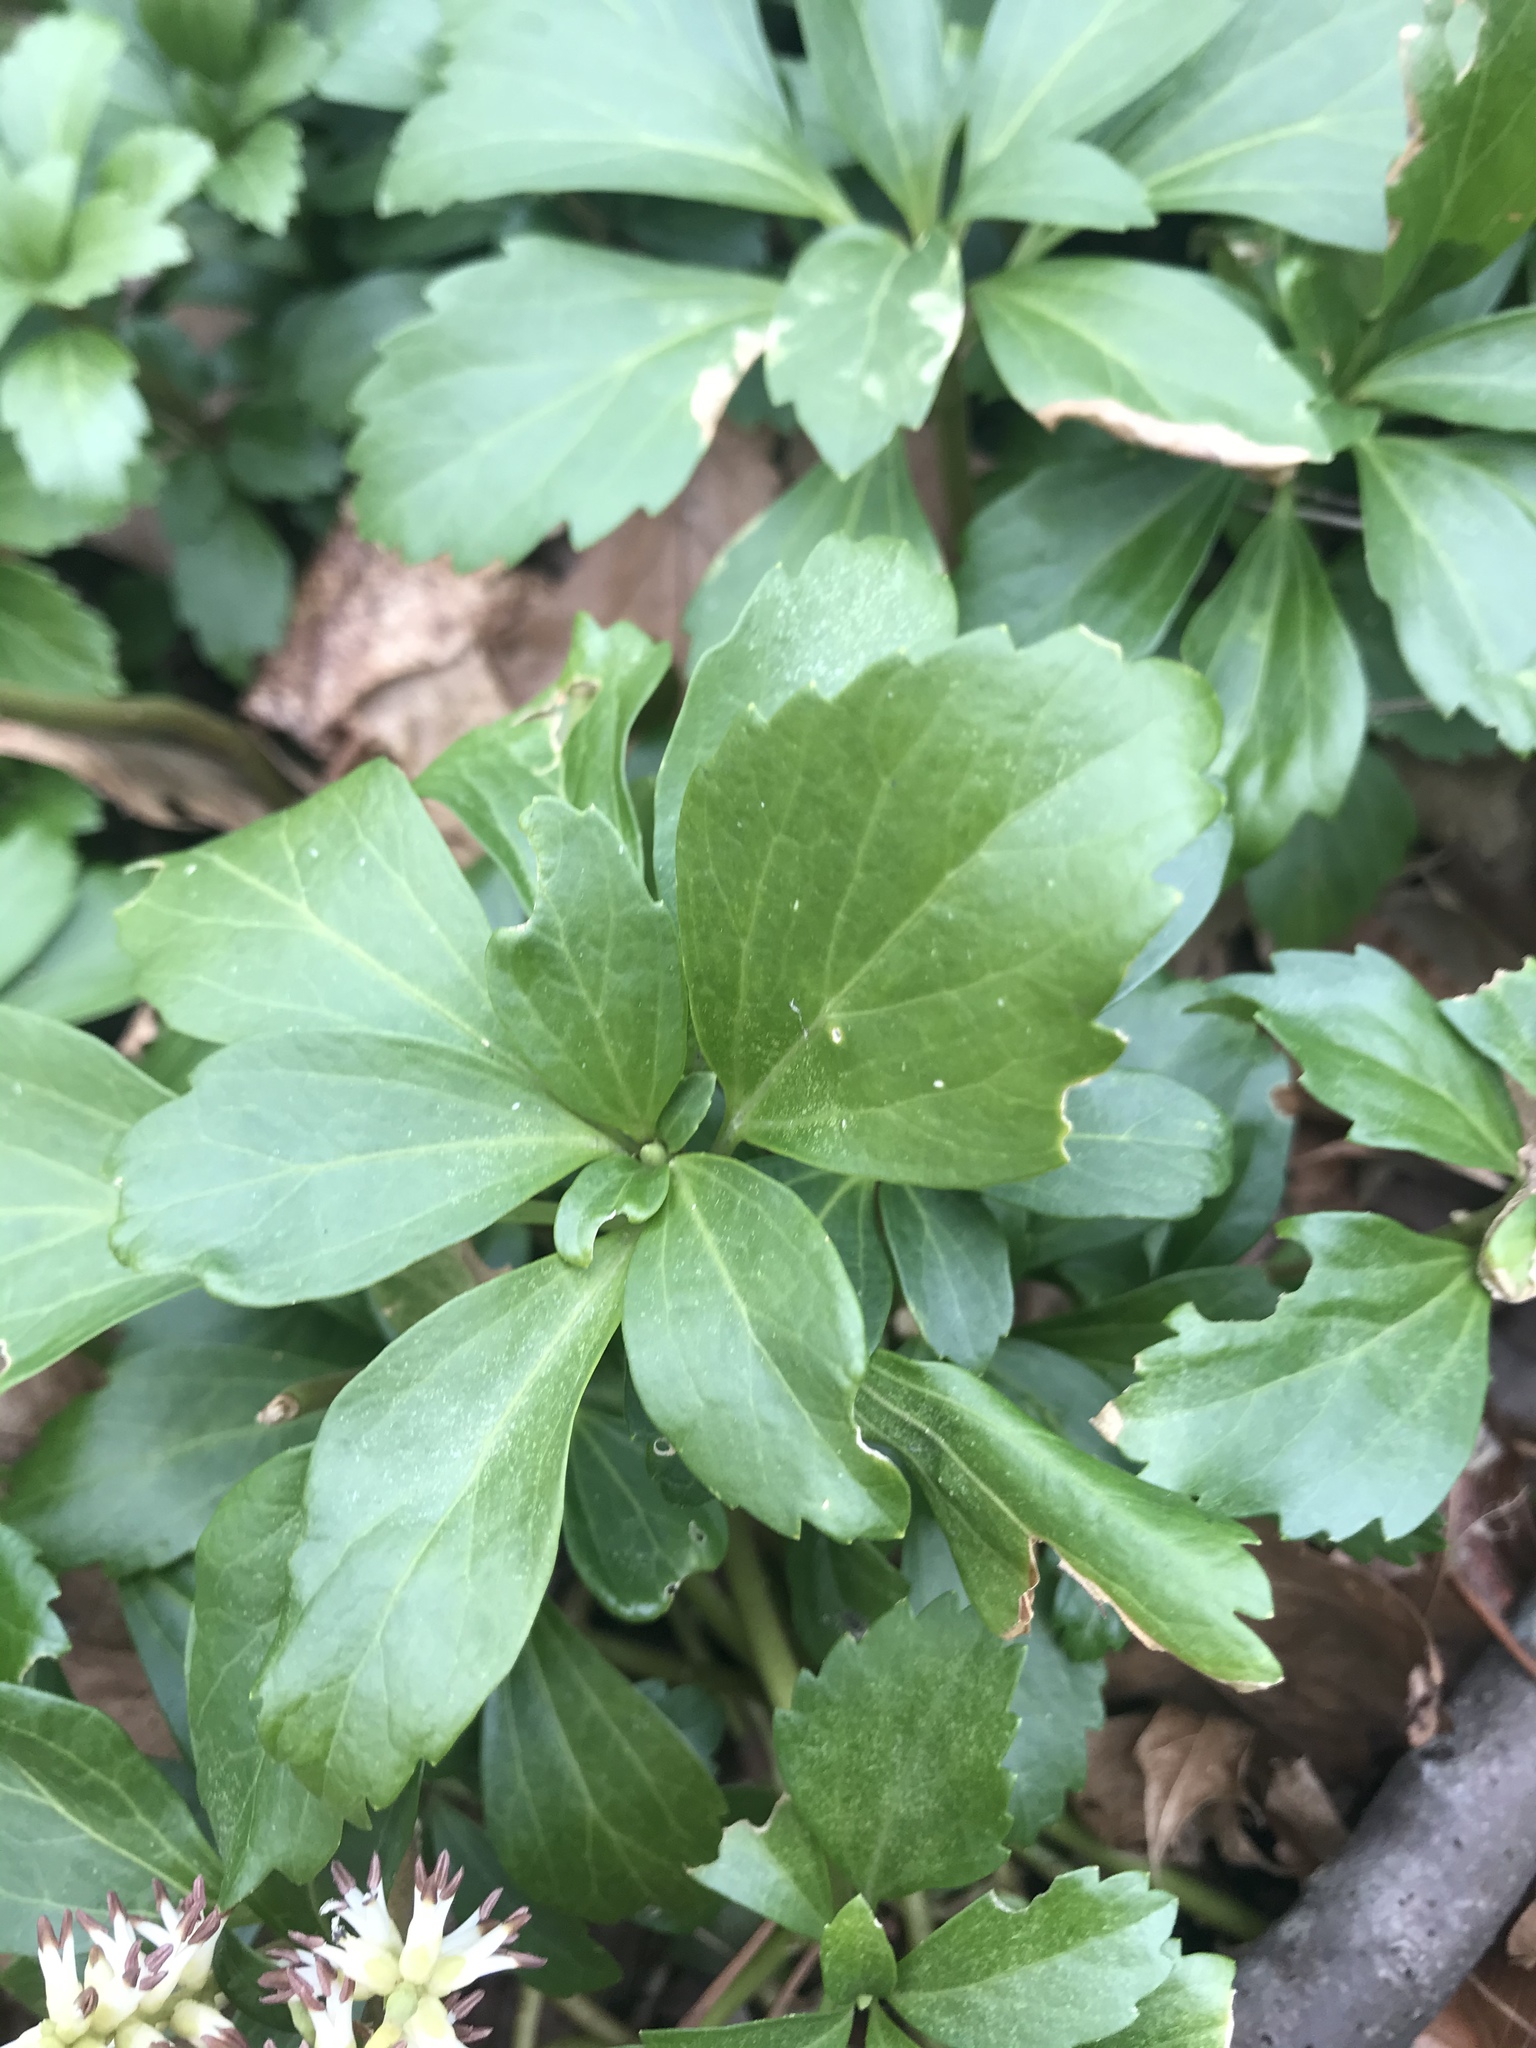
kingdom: Plantae
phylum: Tracheophyta
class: Magnoliopsida
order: Buxales
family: Buxaceae
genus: Pachysandra
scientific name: Pachysandra terminalis
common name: Japanese pachysandra
